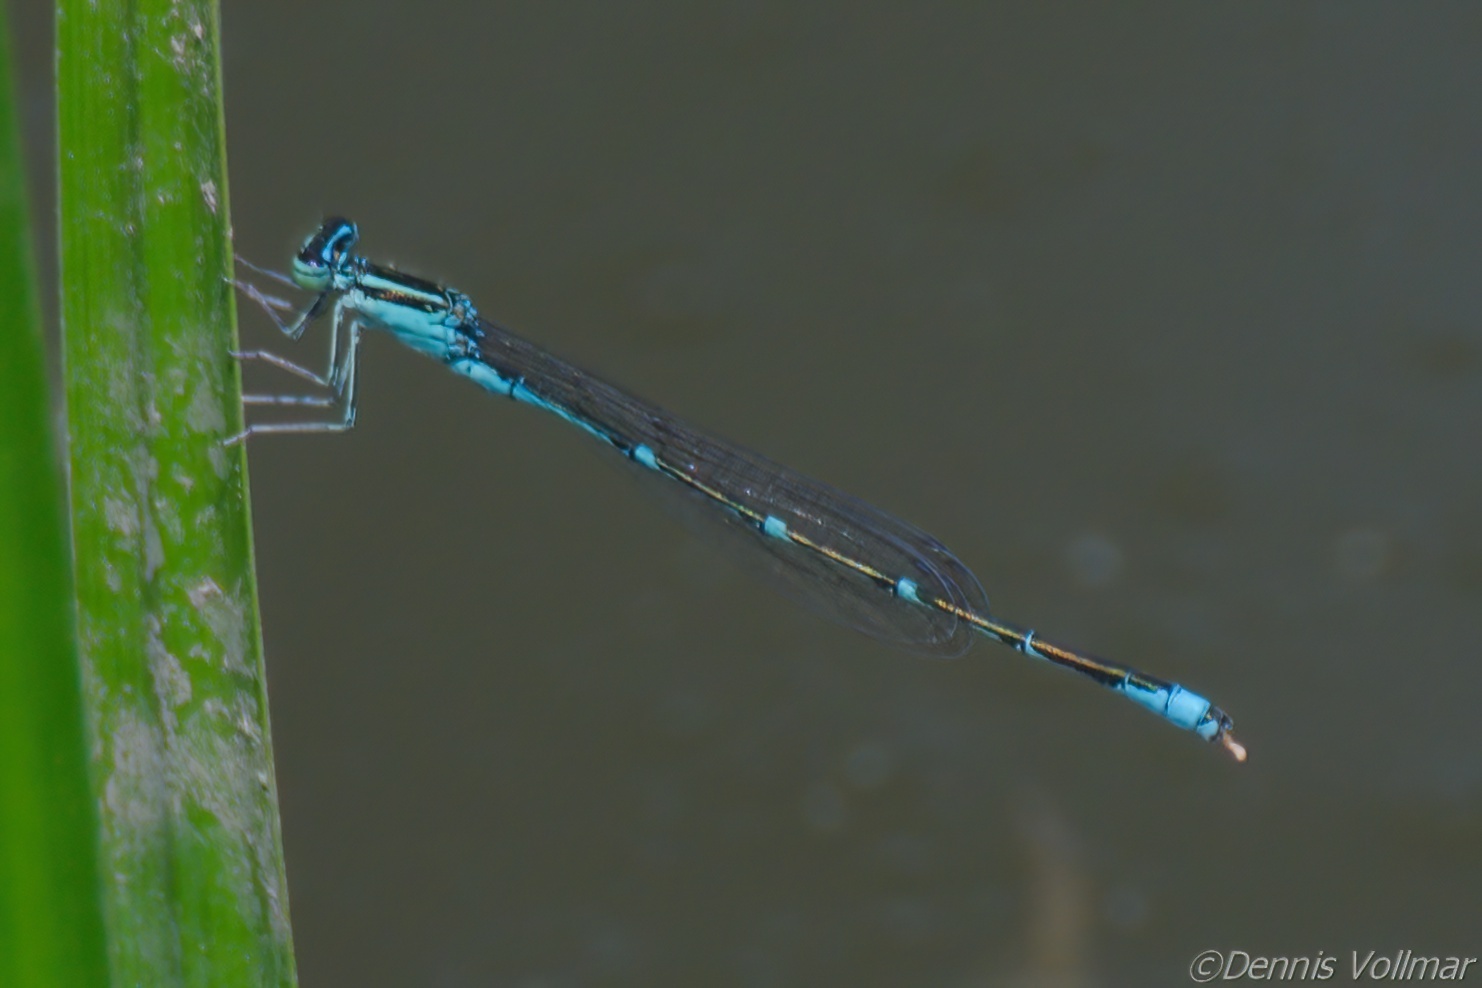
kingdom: Animalia
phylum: Arthropoda
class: Insecta
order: Odonata
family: Coenagrionidae
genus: Enallagma
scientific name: Enallagma exsulans
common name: Stream bluet
